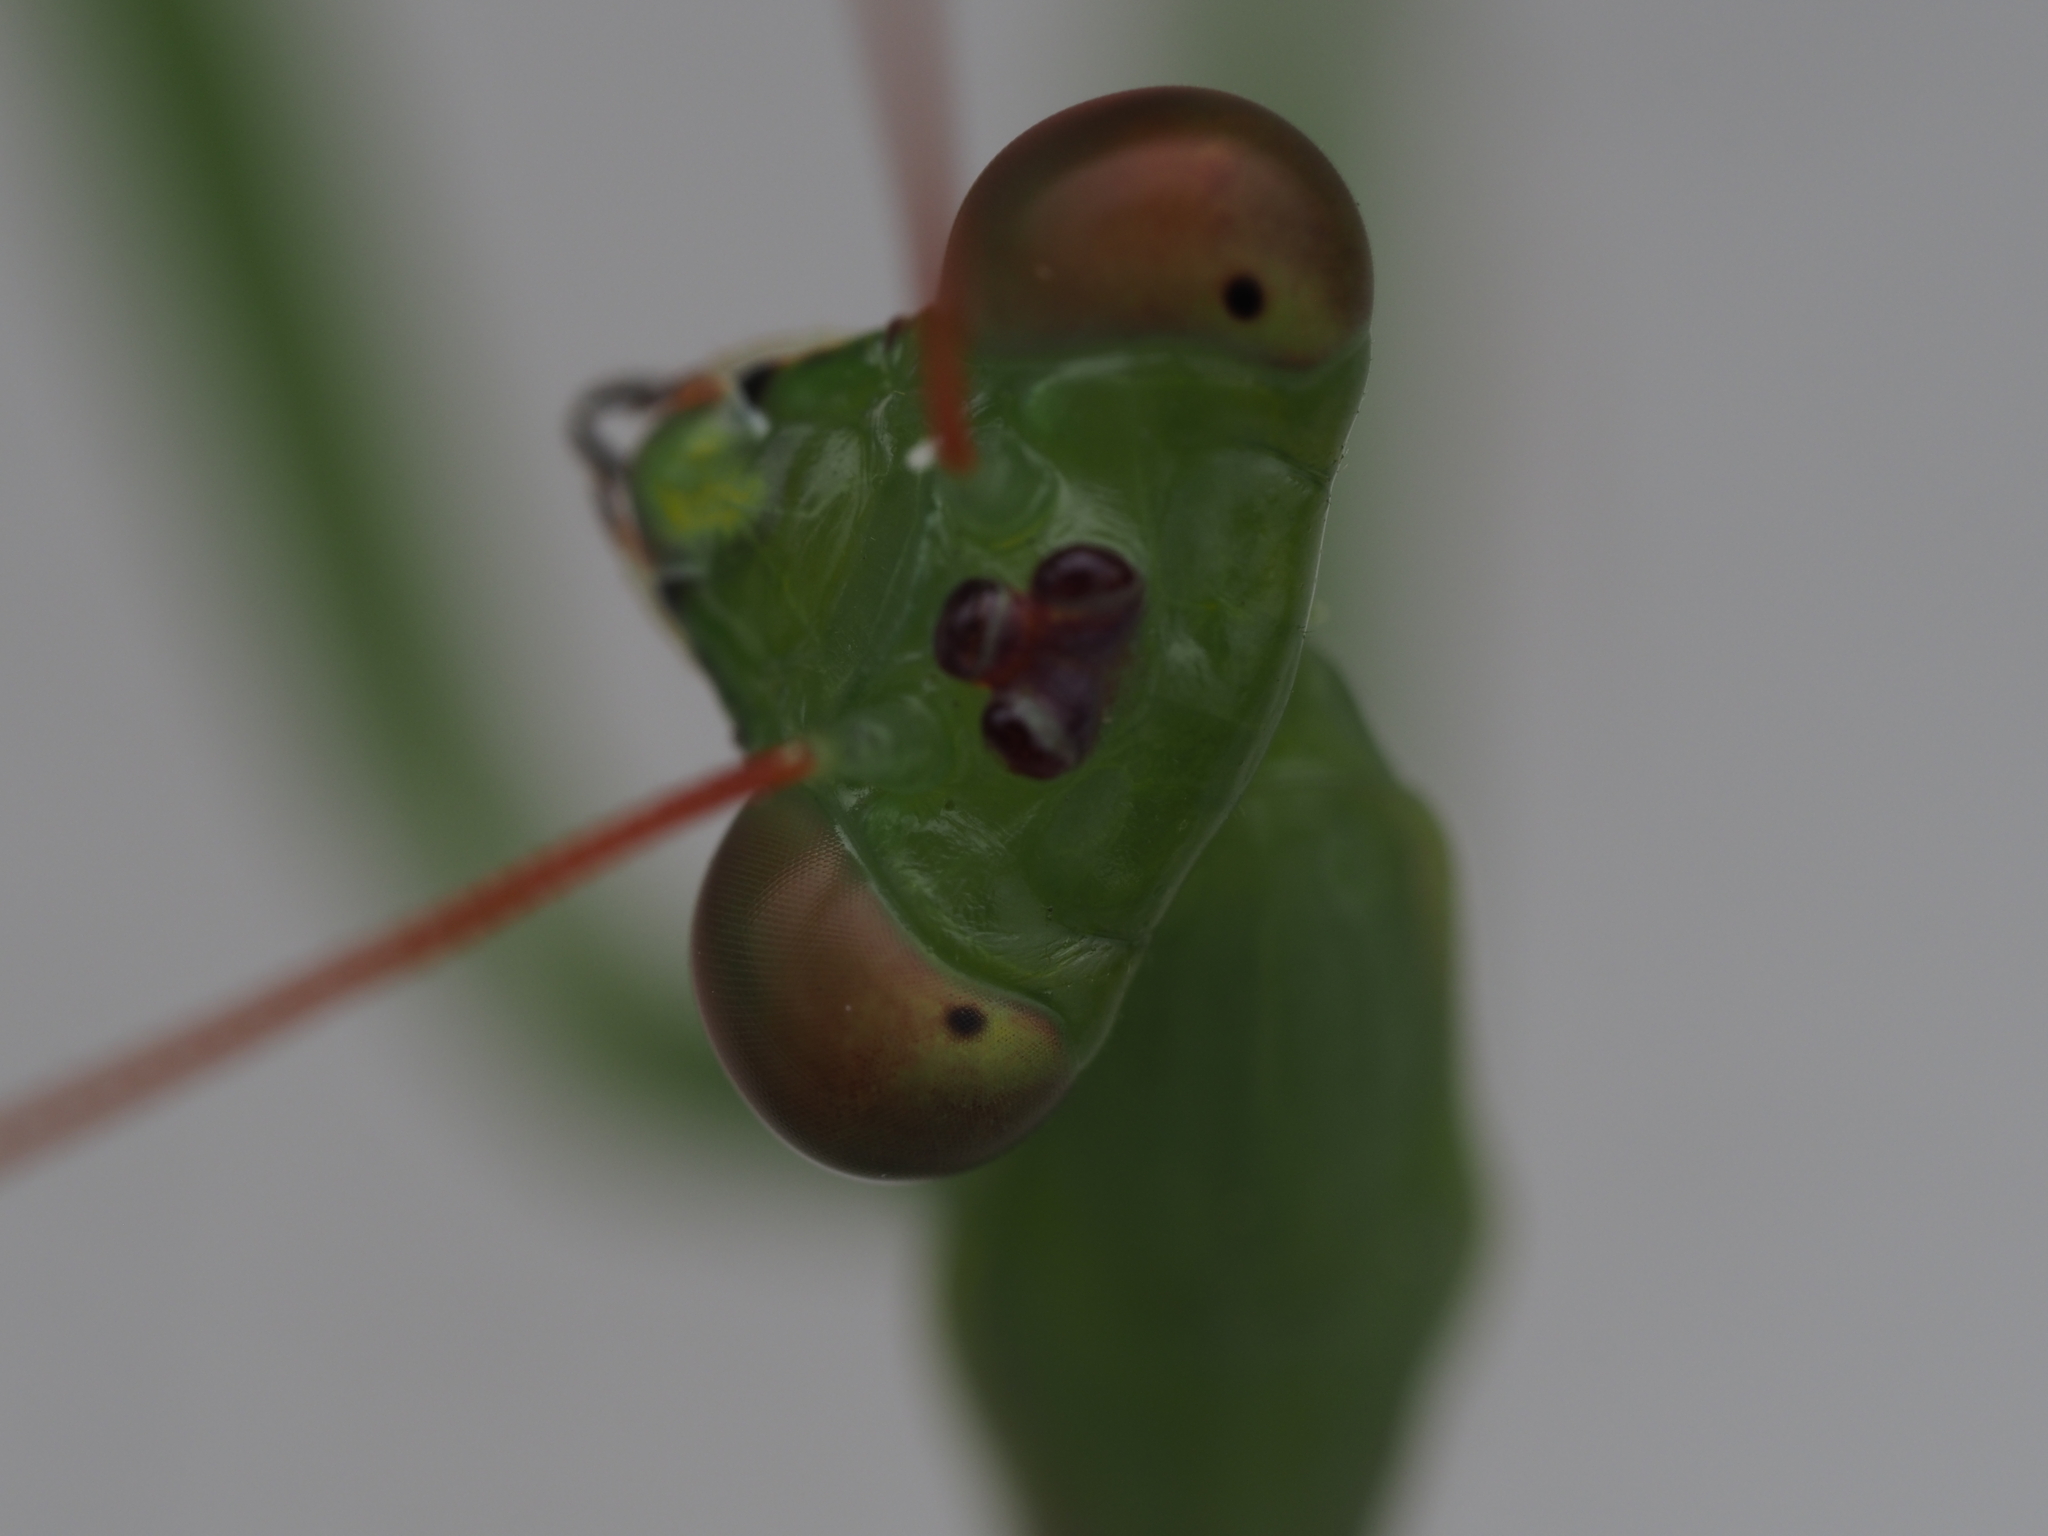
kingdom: Animalia
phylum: Arthropoda
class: Insecta
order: Mantodea
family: Miomantidae
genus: Miomantis
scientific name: Miomantis caffra
